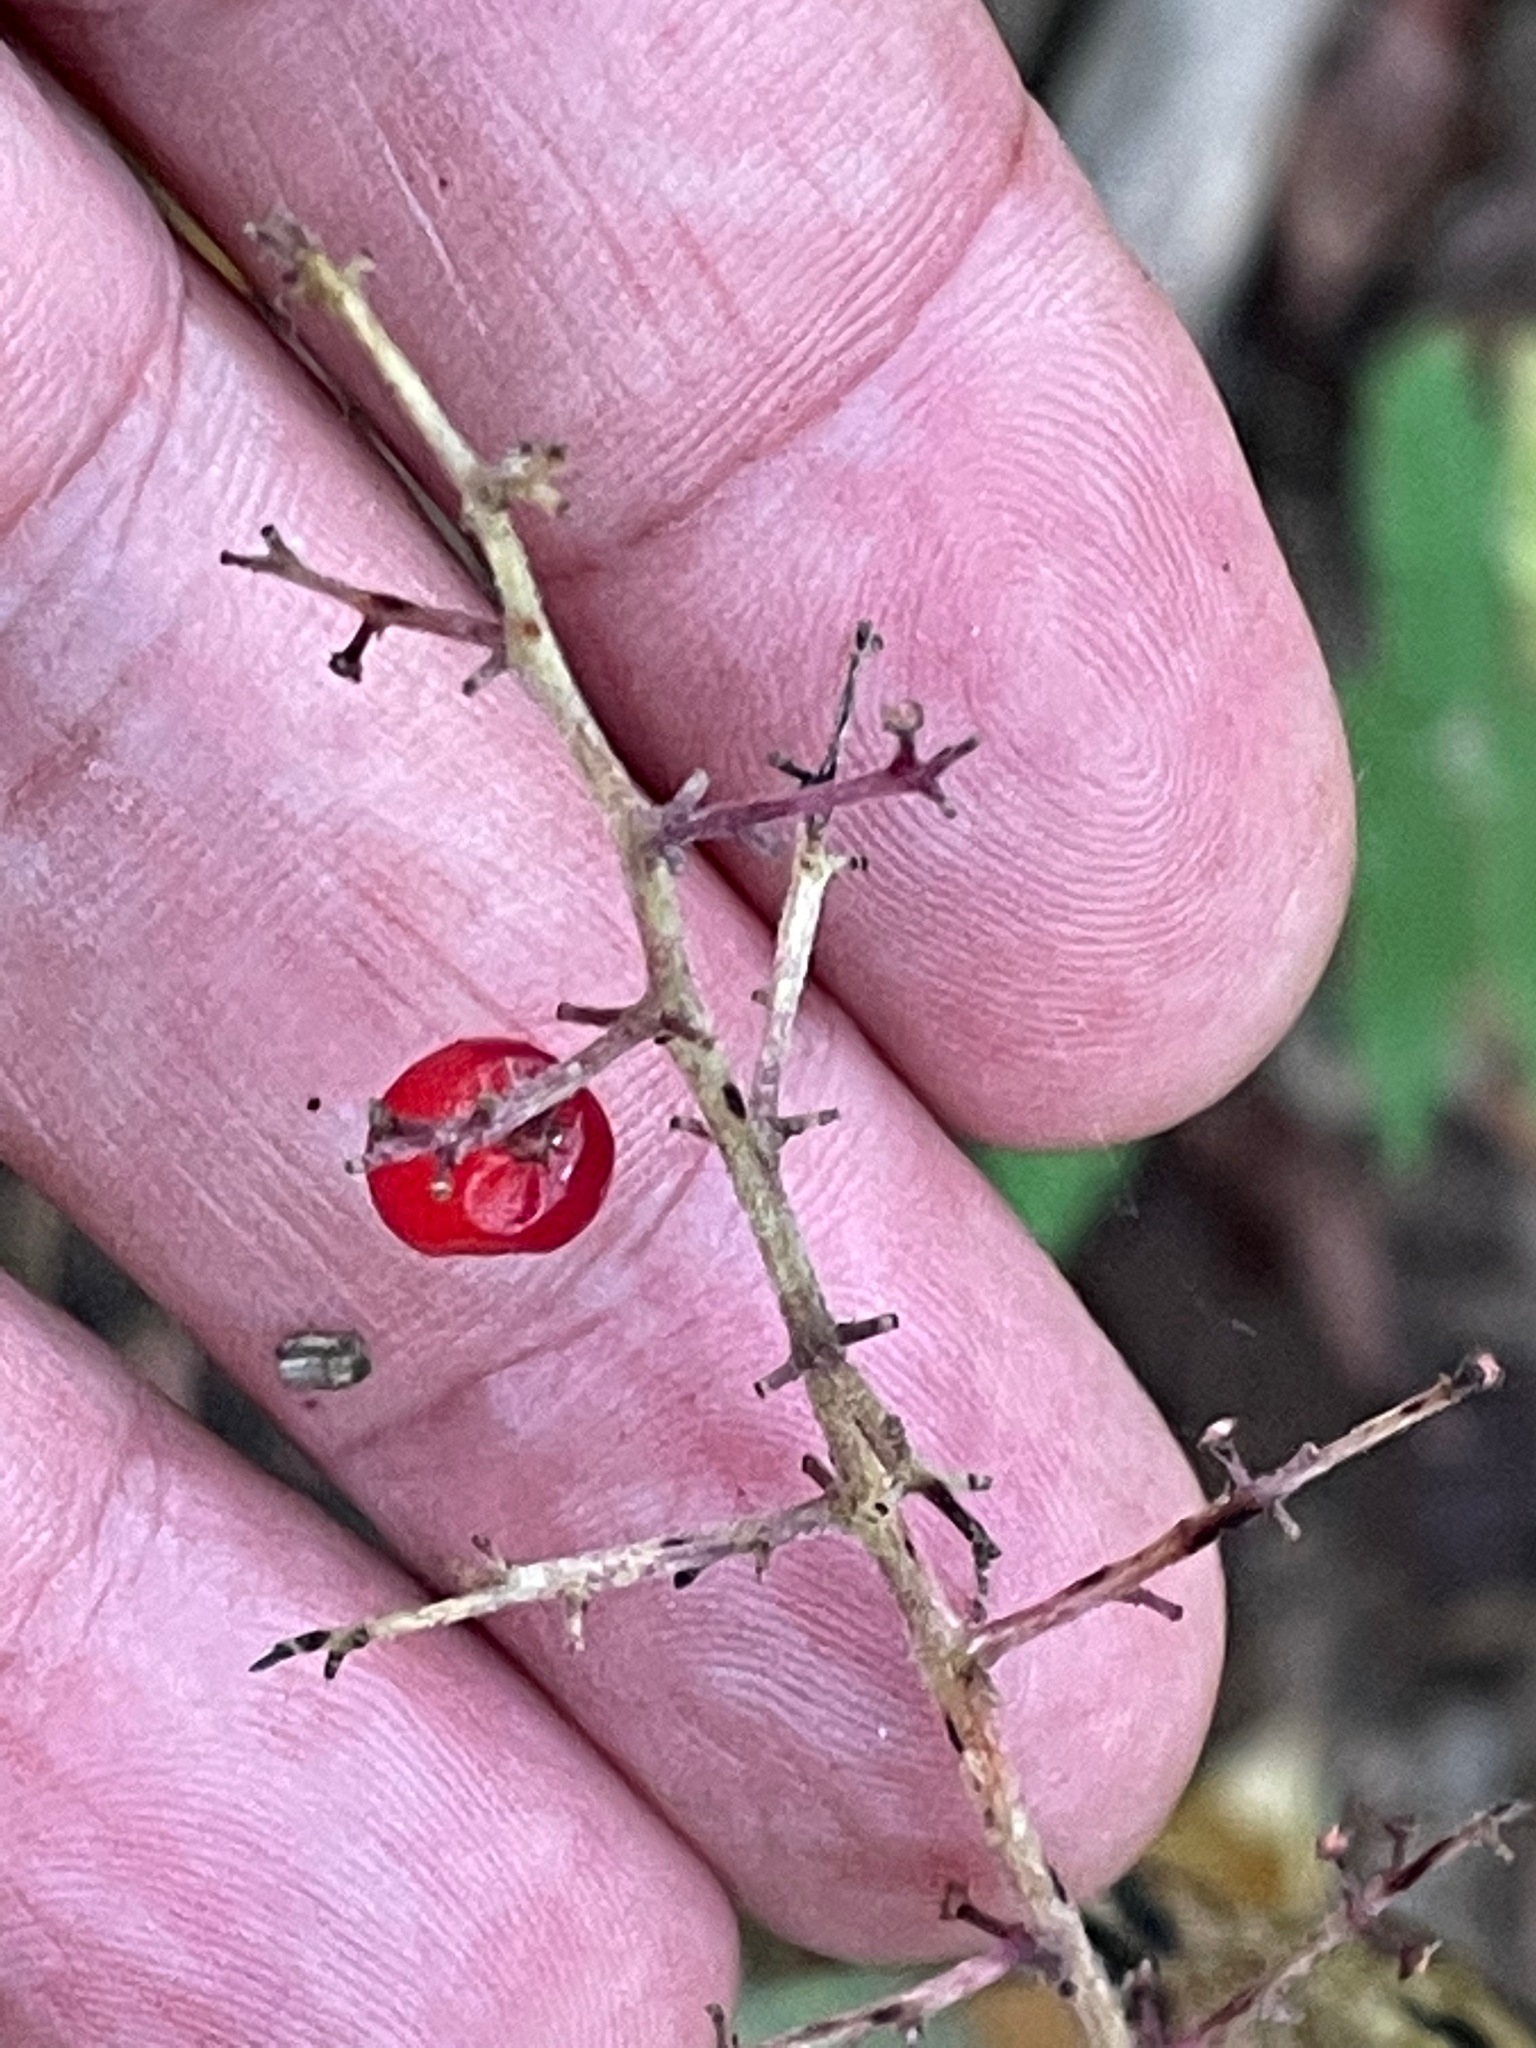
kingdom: Plantae
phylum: Tracheophyta
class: Liliopsida
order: Asparagales
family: Asparagaceae
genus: Maianthemum
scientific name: Maianthemum racemosum
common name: False spikenard
